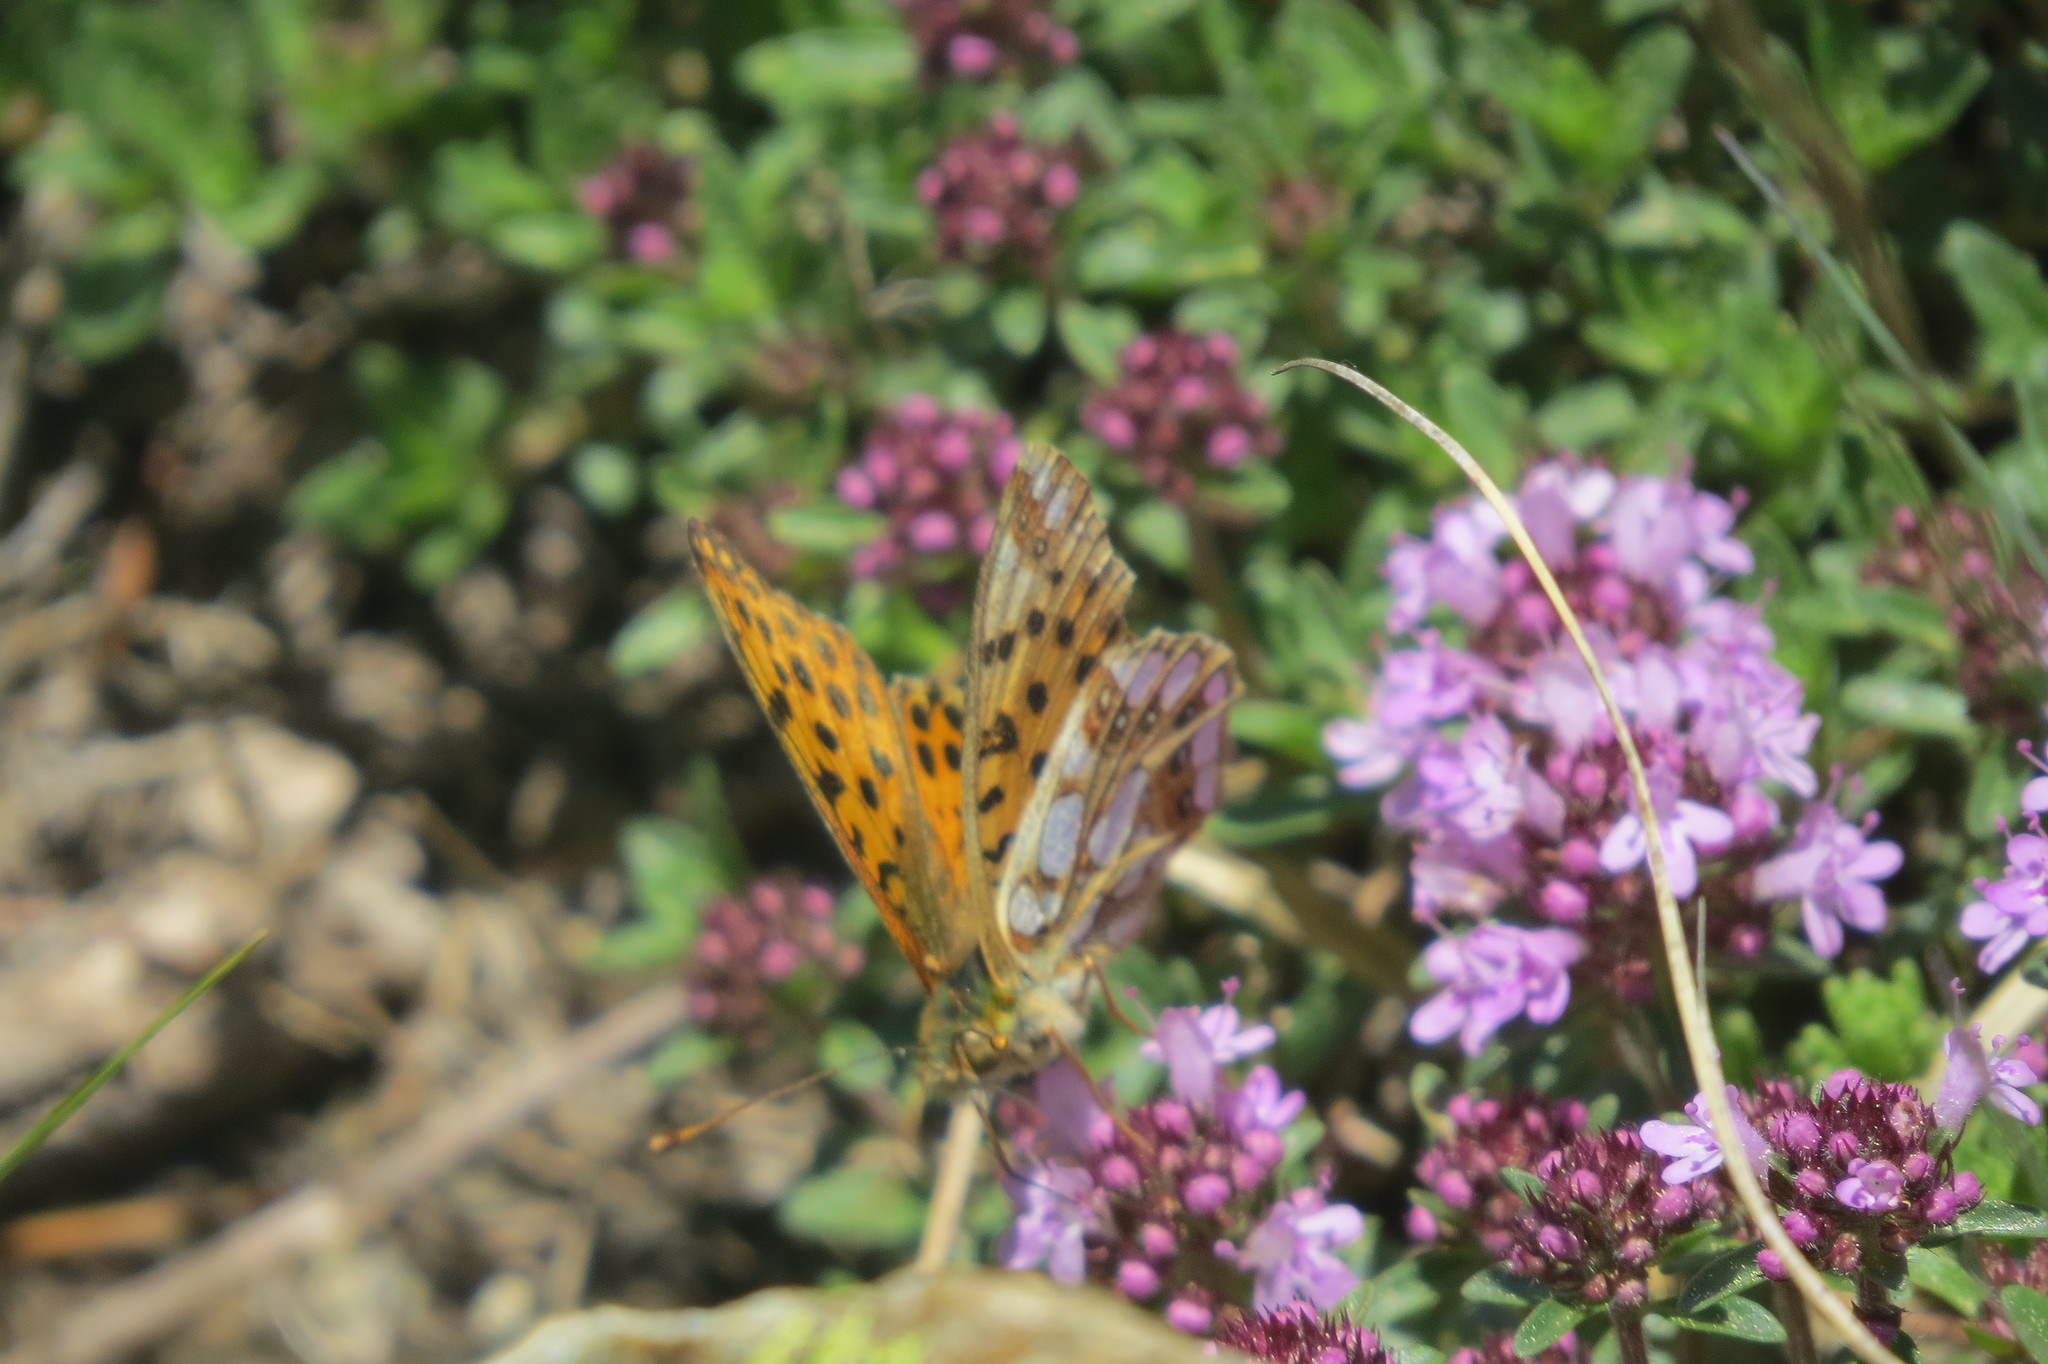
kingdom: Animalia
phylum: Arthropoda
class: Insecta
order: Lepidoptera
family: Nymphalidae
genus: Issoria
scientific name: Issoria lathonia
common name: Queen of spain fritillary
